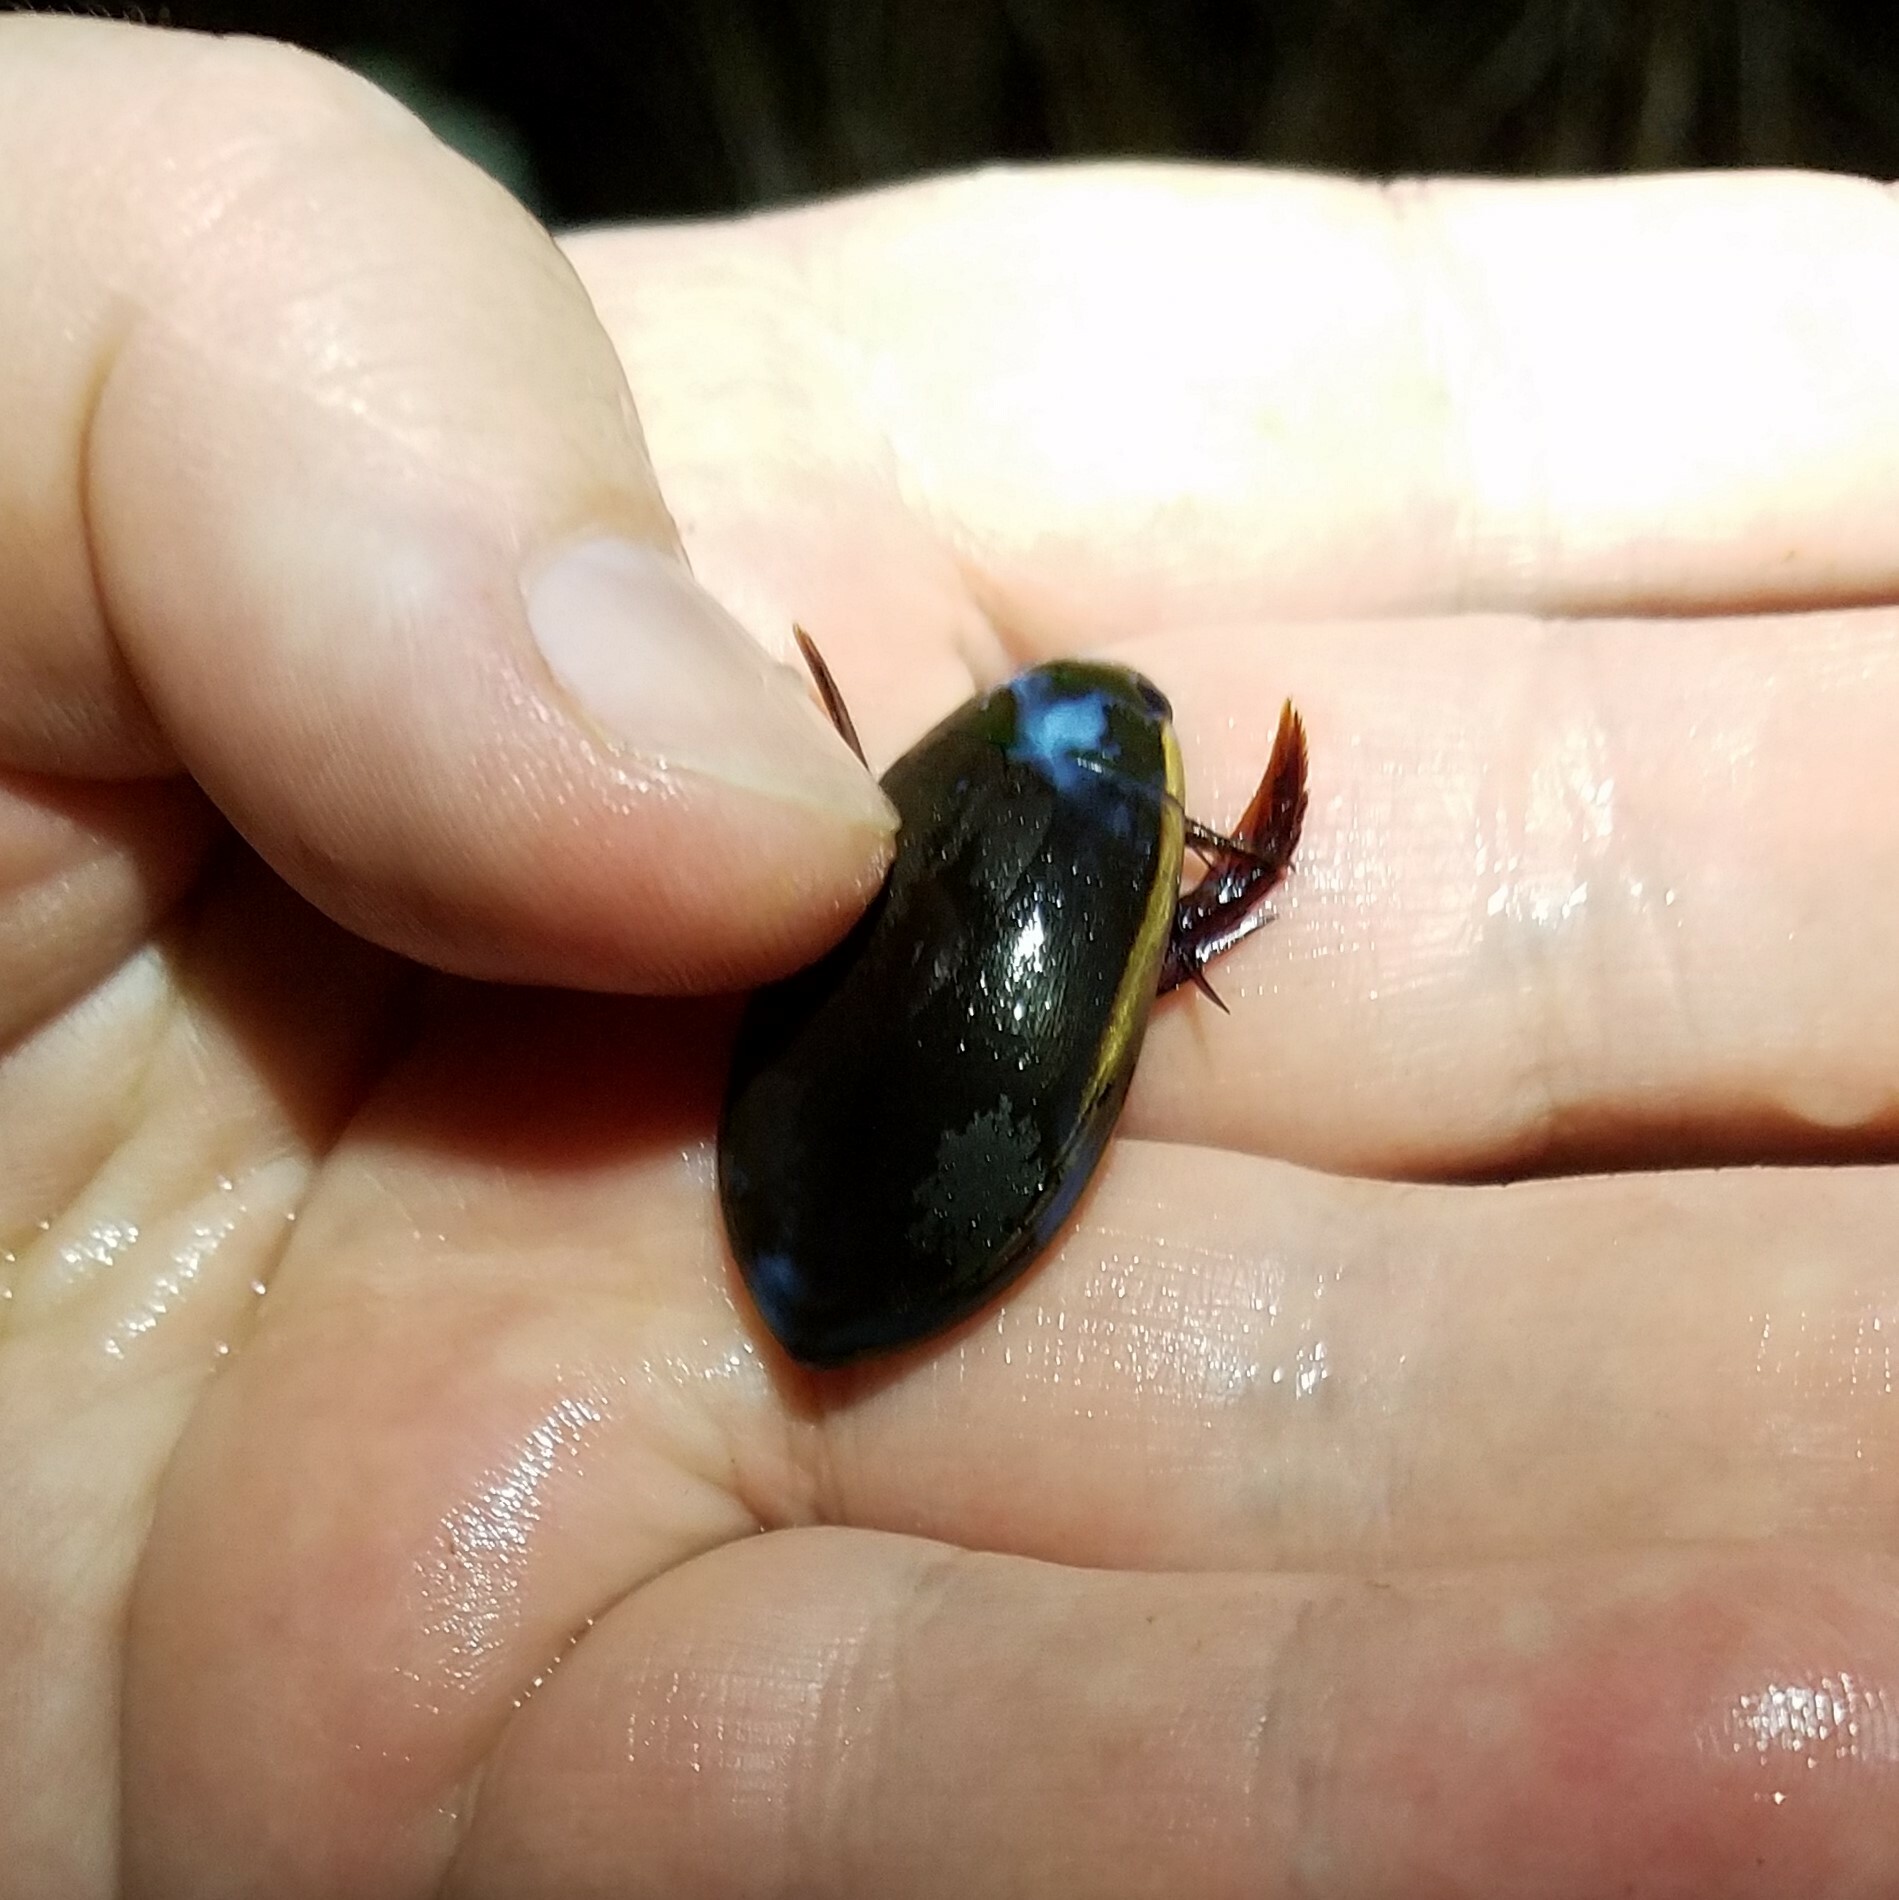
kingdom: Animalia
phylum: Arthropoda
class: Insecta
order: Coleoptera
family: Dytiscidae
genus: Cybister
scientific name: Cybister fimbriolatus
